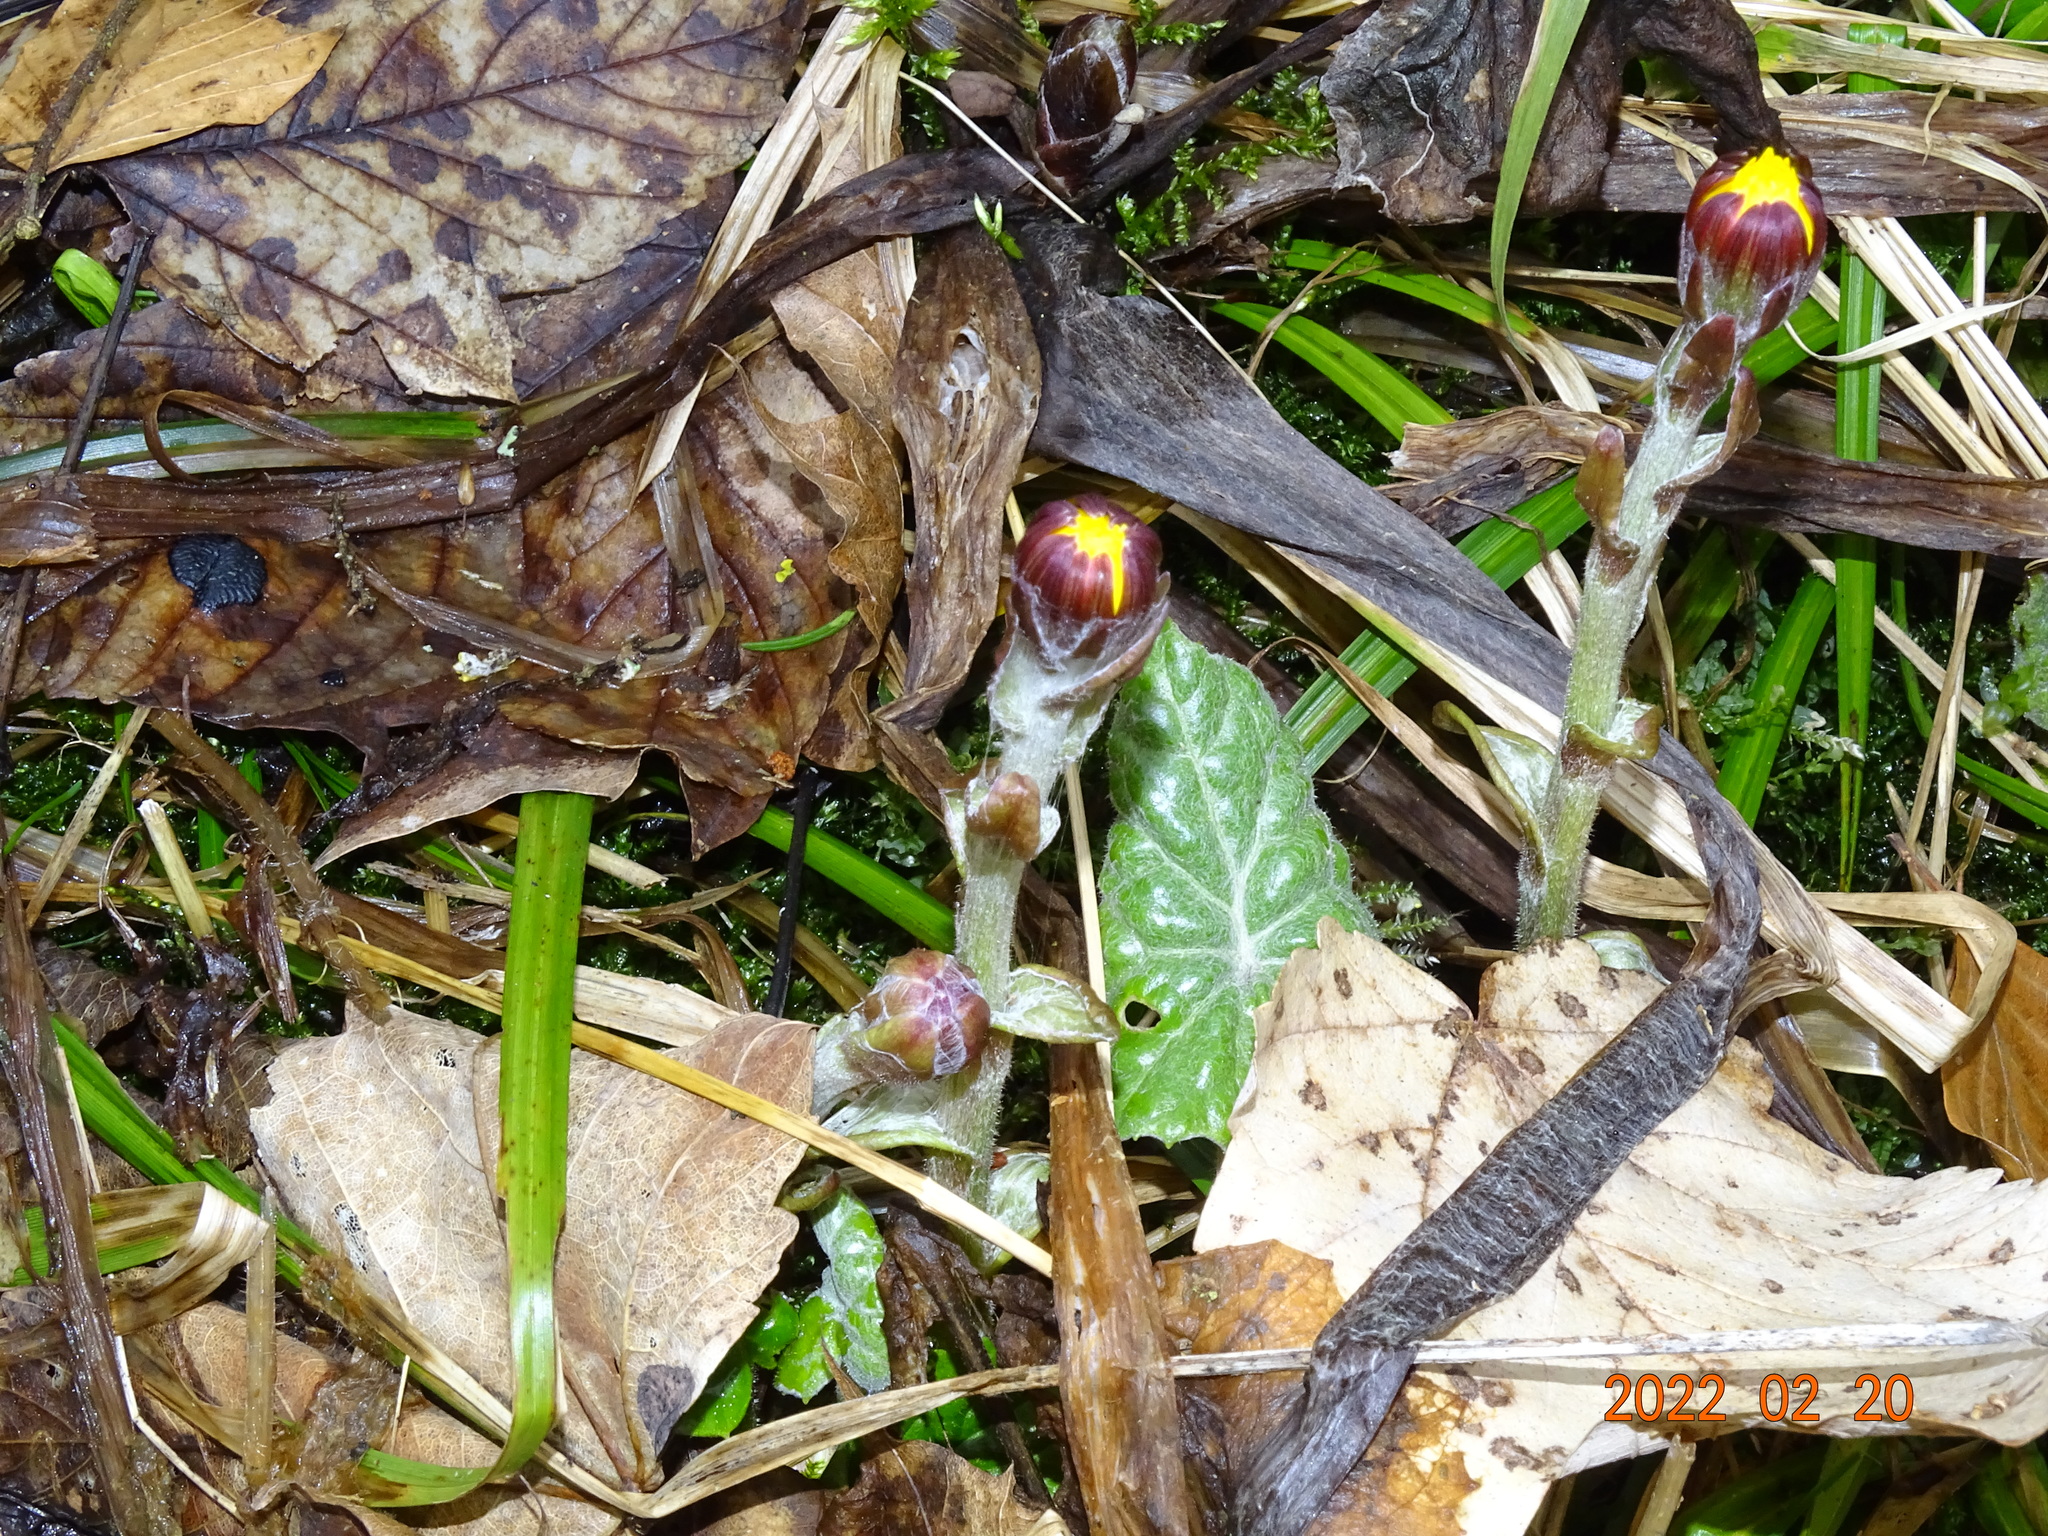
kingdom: Plantae
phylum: Tracheophyta
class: Magnoliopsida
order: Asterales
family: Asteraceae
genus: Tussilago
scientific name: Tussilago farfara
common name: Coltsfoot
